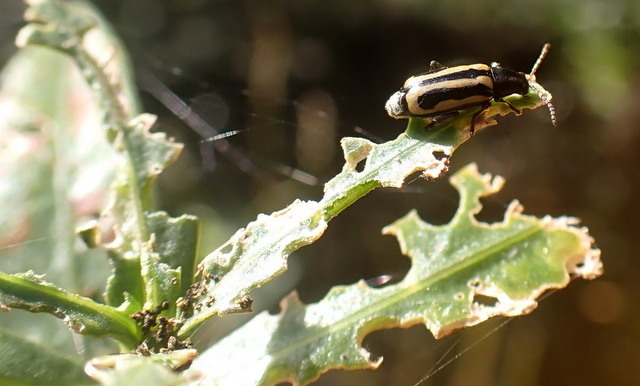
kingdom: Animalia
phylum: Arthropoda
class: Insecta
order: Coleoptera
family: Chrysomelidae
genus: Agasicles
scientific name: Agasicles hygrophila
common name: Alligatorweed flea beetle
